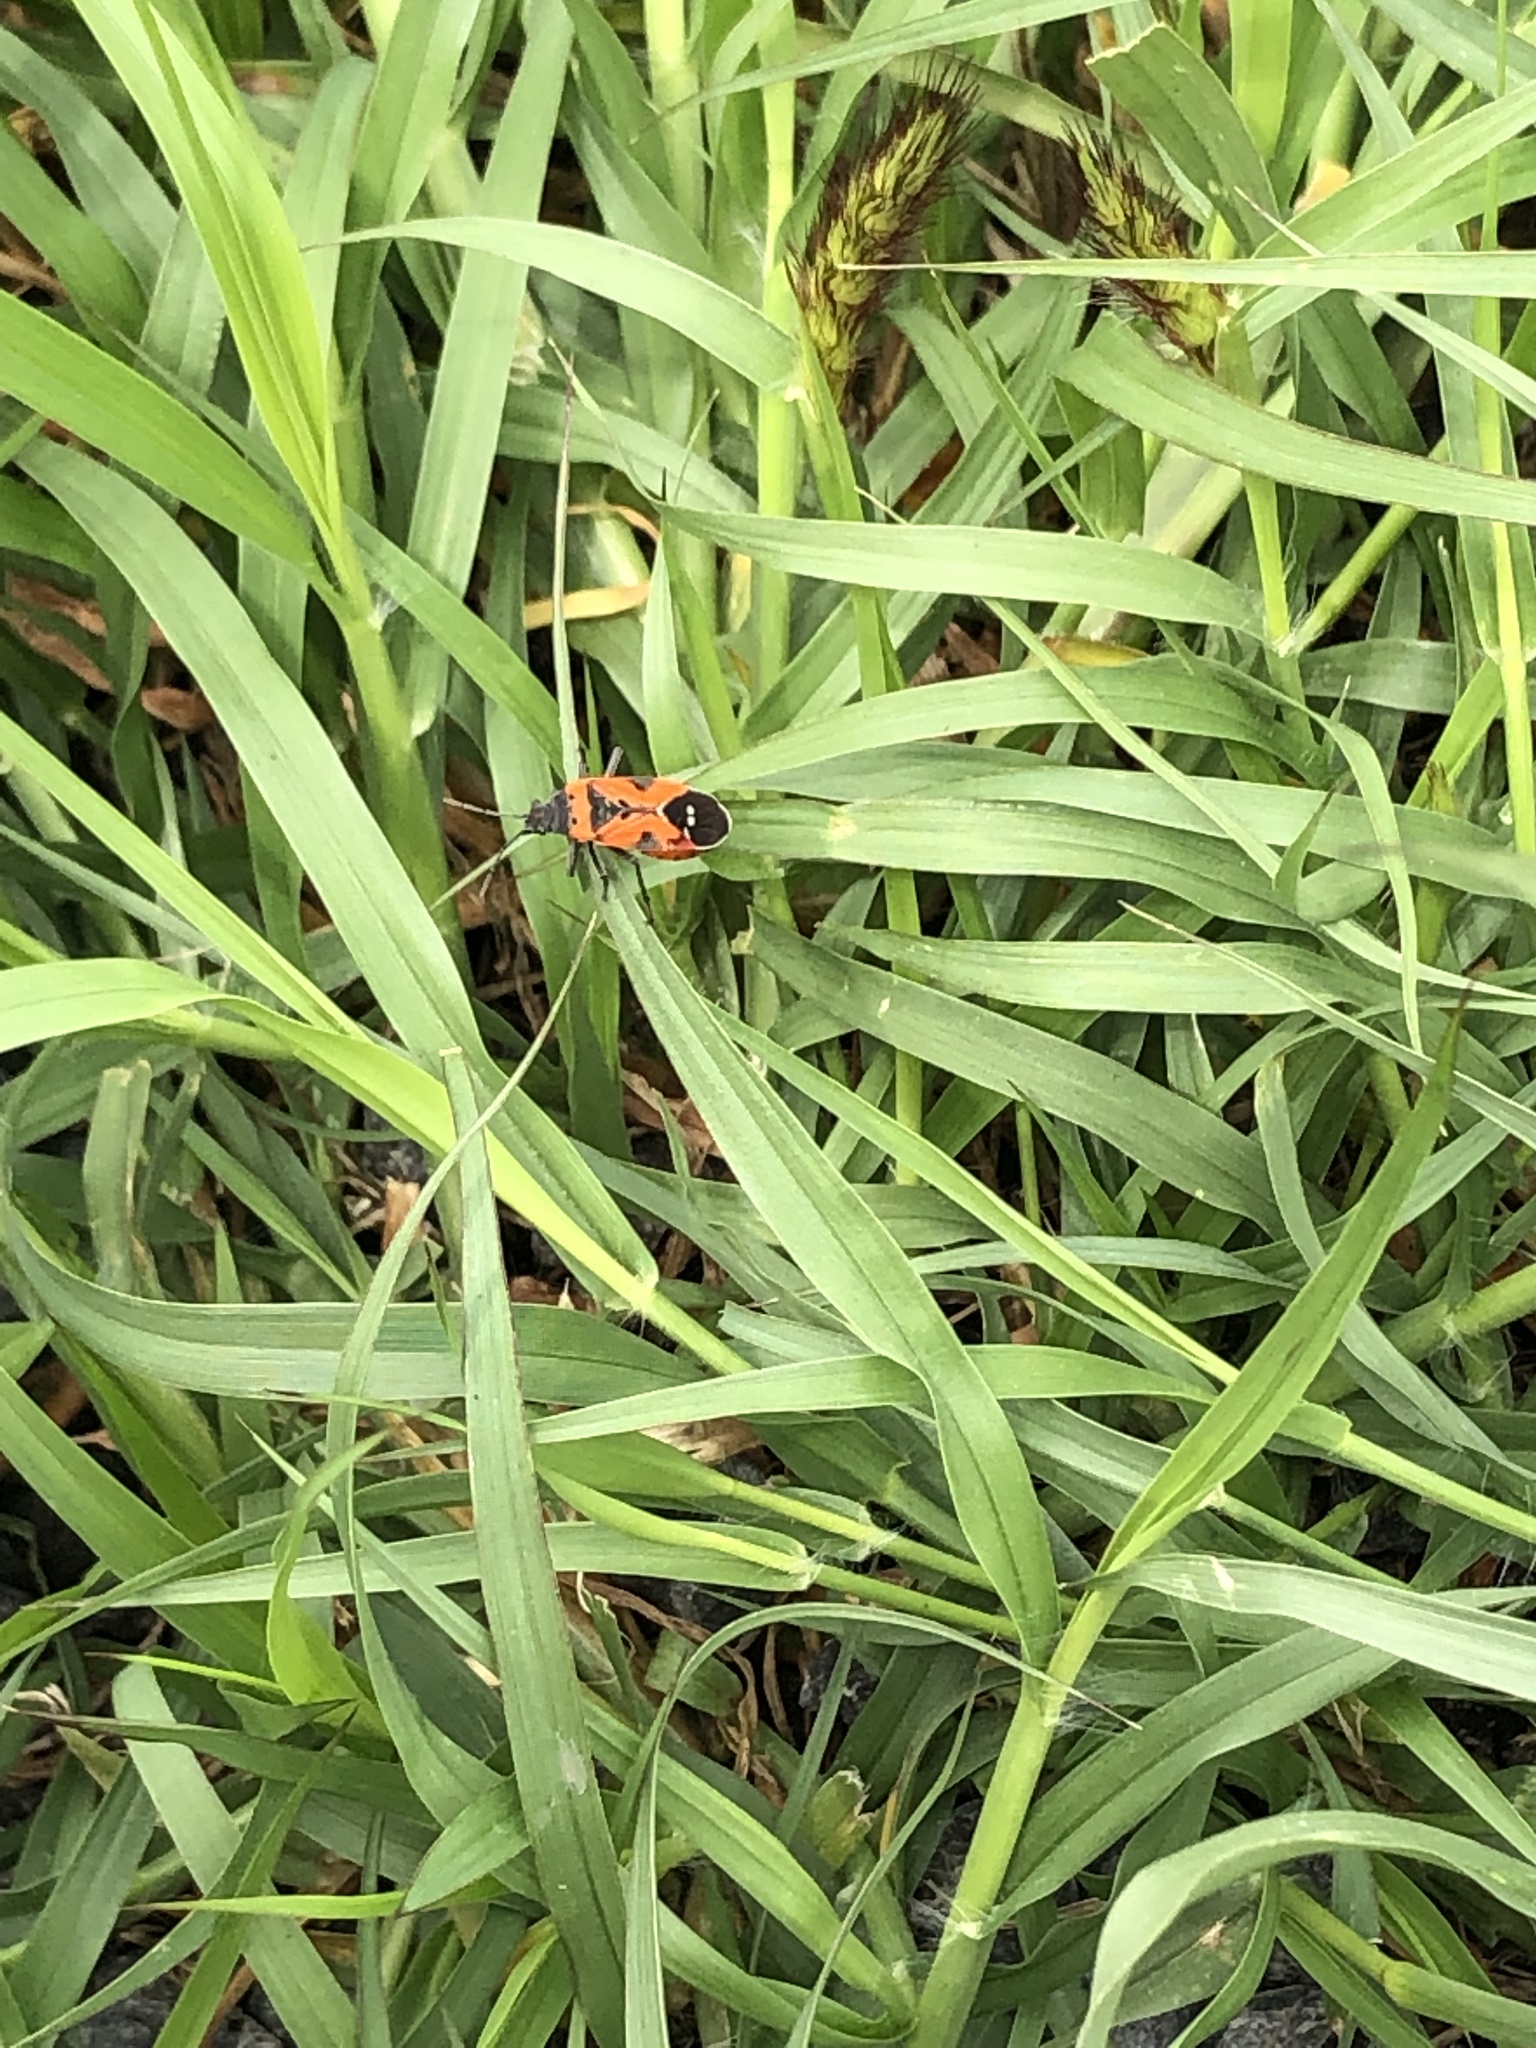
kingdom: Animalia
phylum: Arthropoda
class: Insecta
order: Hemiptera
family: Lygaeidae
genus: Lygaeus
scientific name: Lygaeus reclivatus
